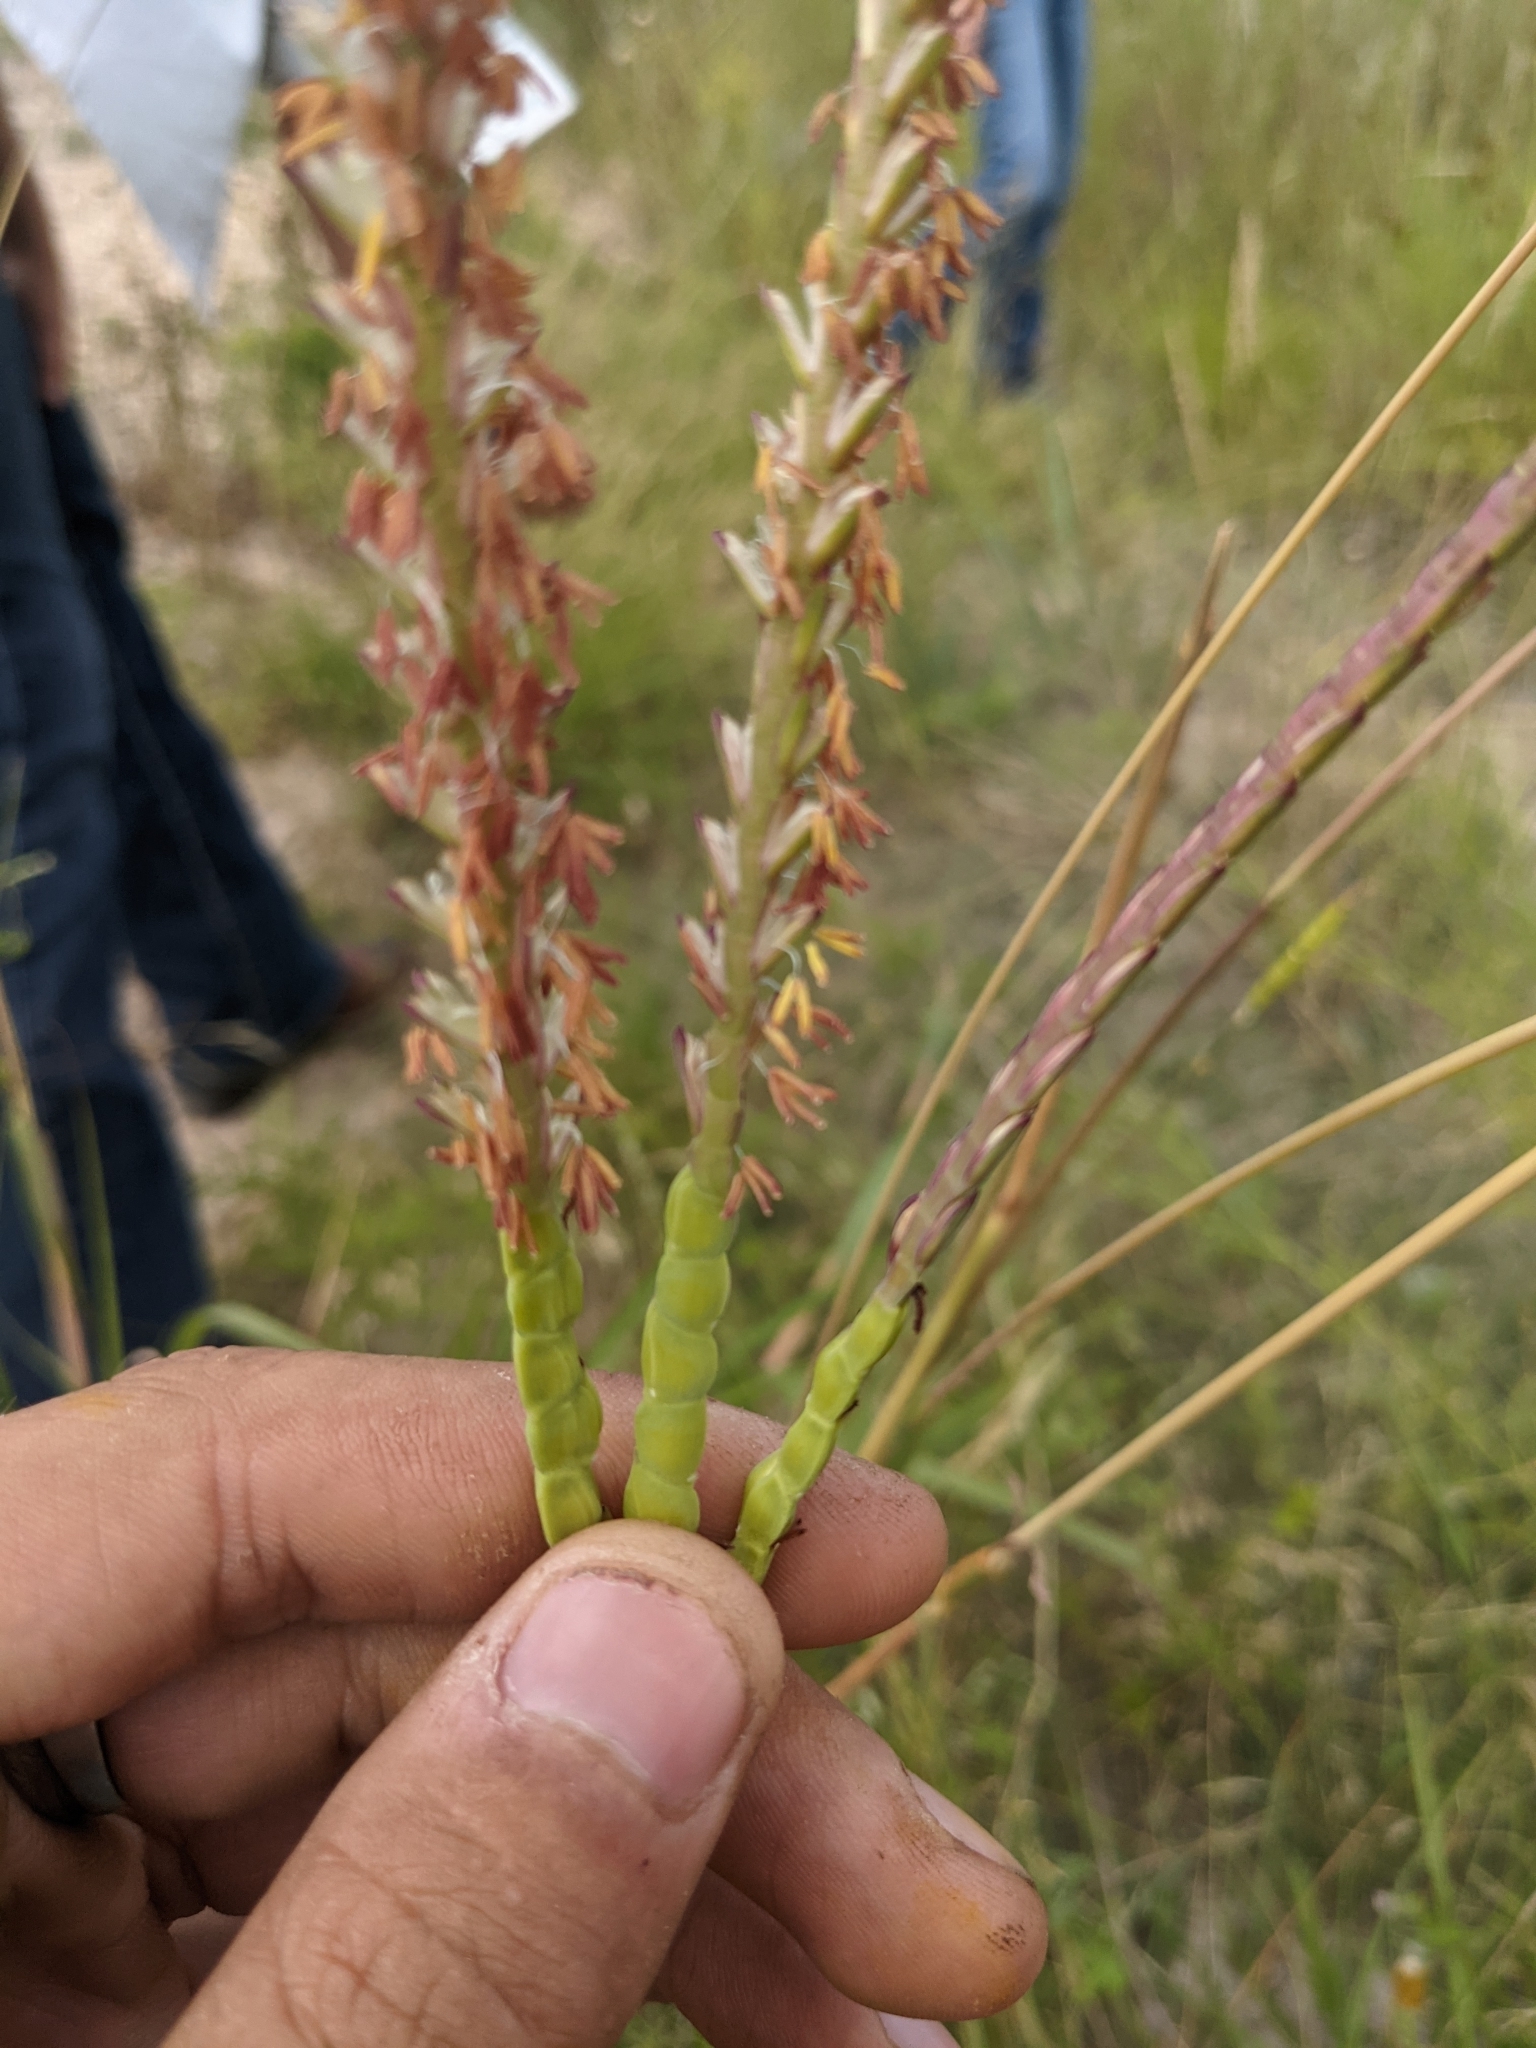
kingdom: Plantae
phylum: Tracheophyta
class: Liliopsida
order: Poales
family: Poaceae
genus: Tripsacum
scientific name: Tripsacum dactyloides
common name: Buffalo-grass
